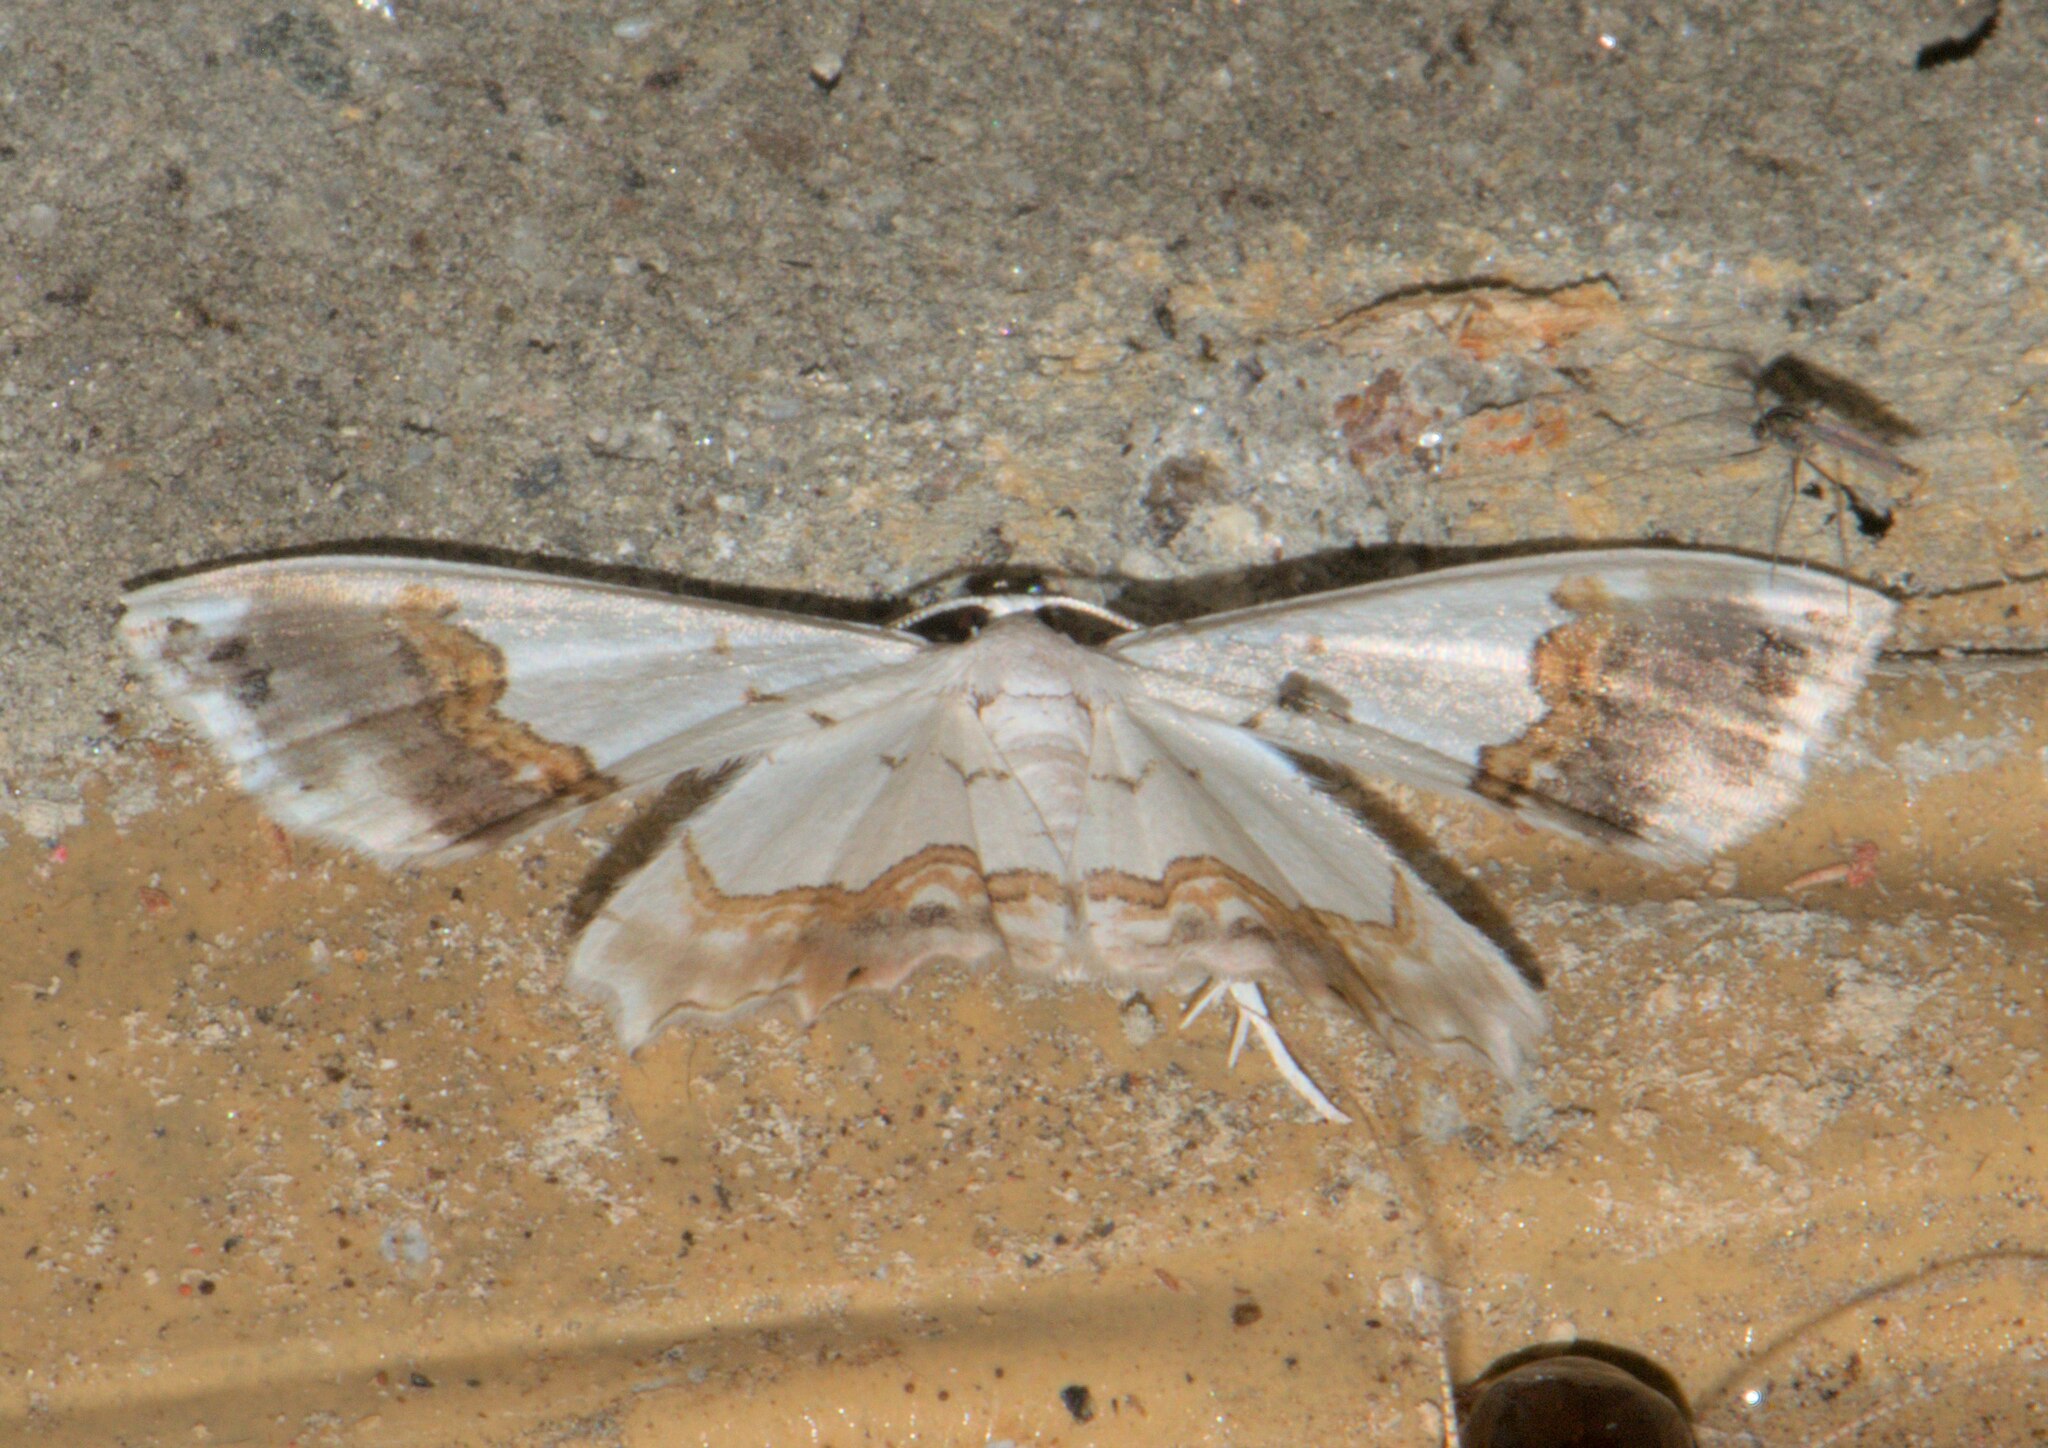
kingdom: Animalia
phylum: Arthropoda
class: Insecta
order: Lepidoptera
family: Uraniidae
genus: Epiplema
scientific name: Epiplema
